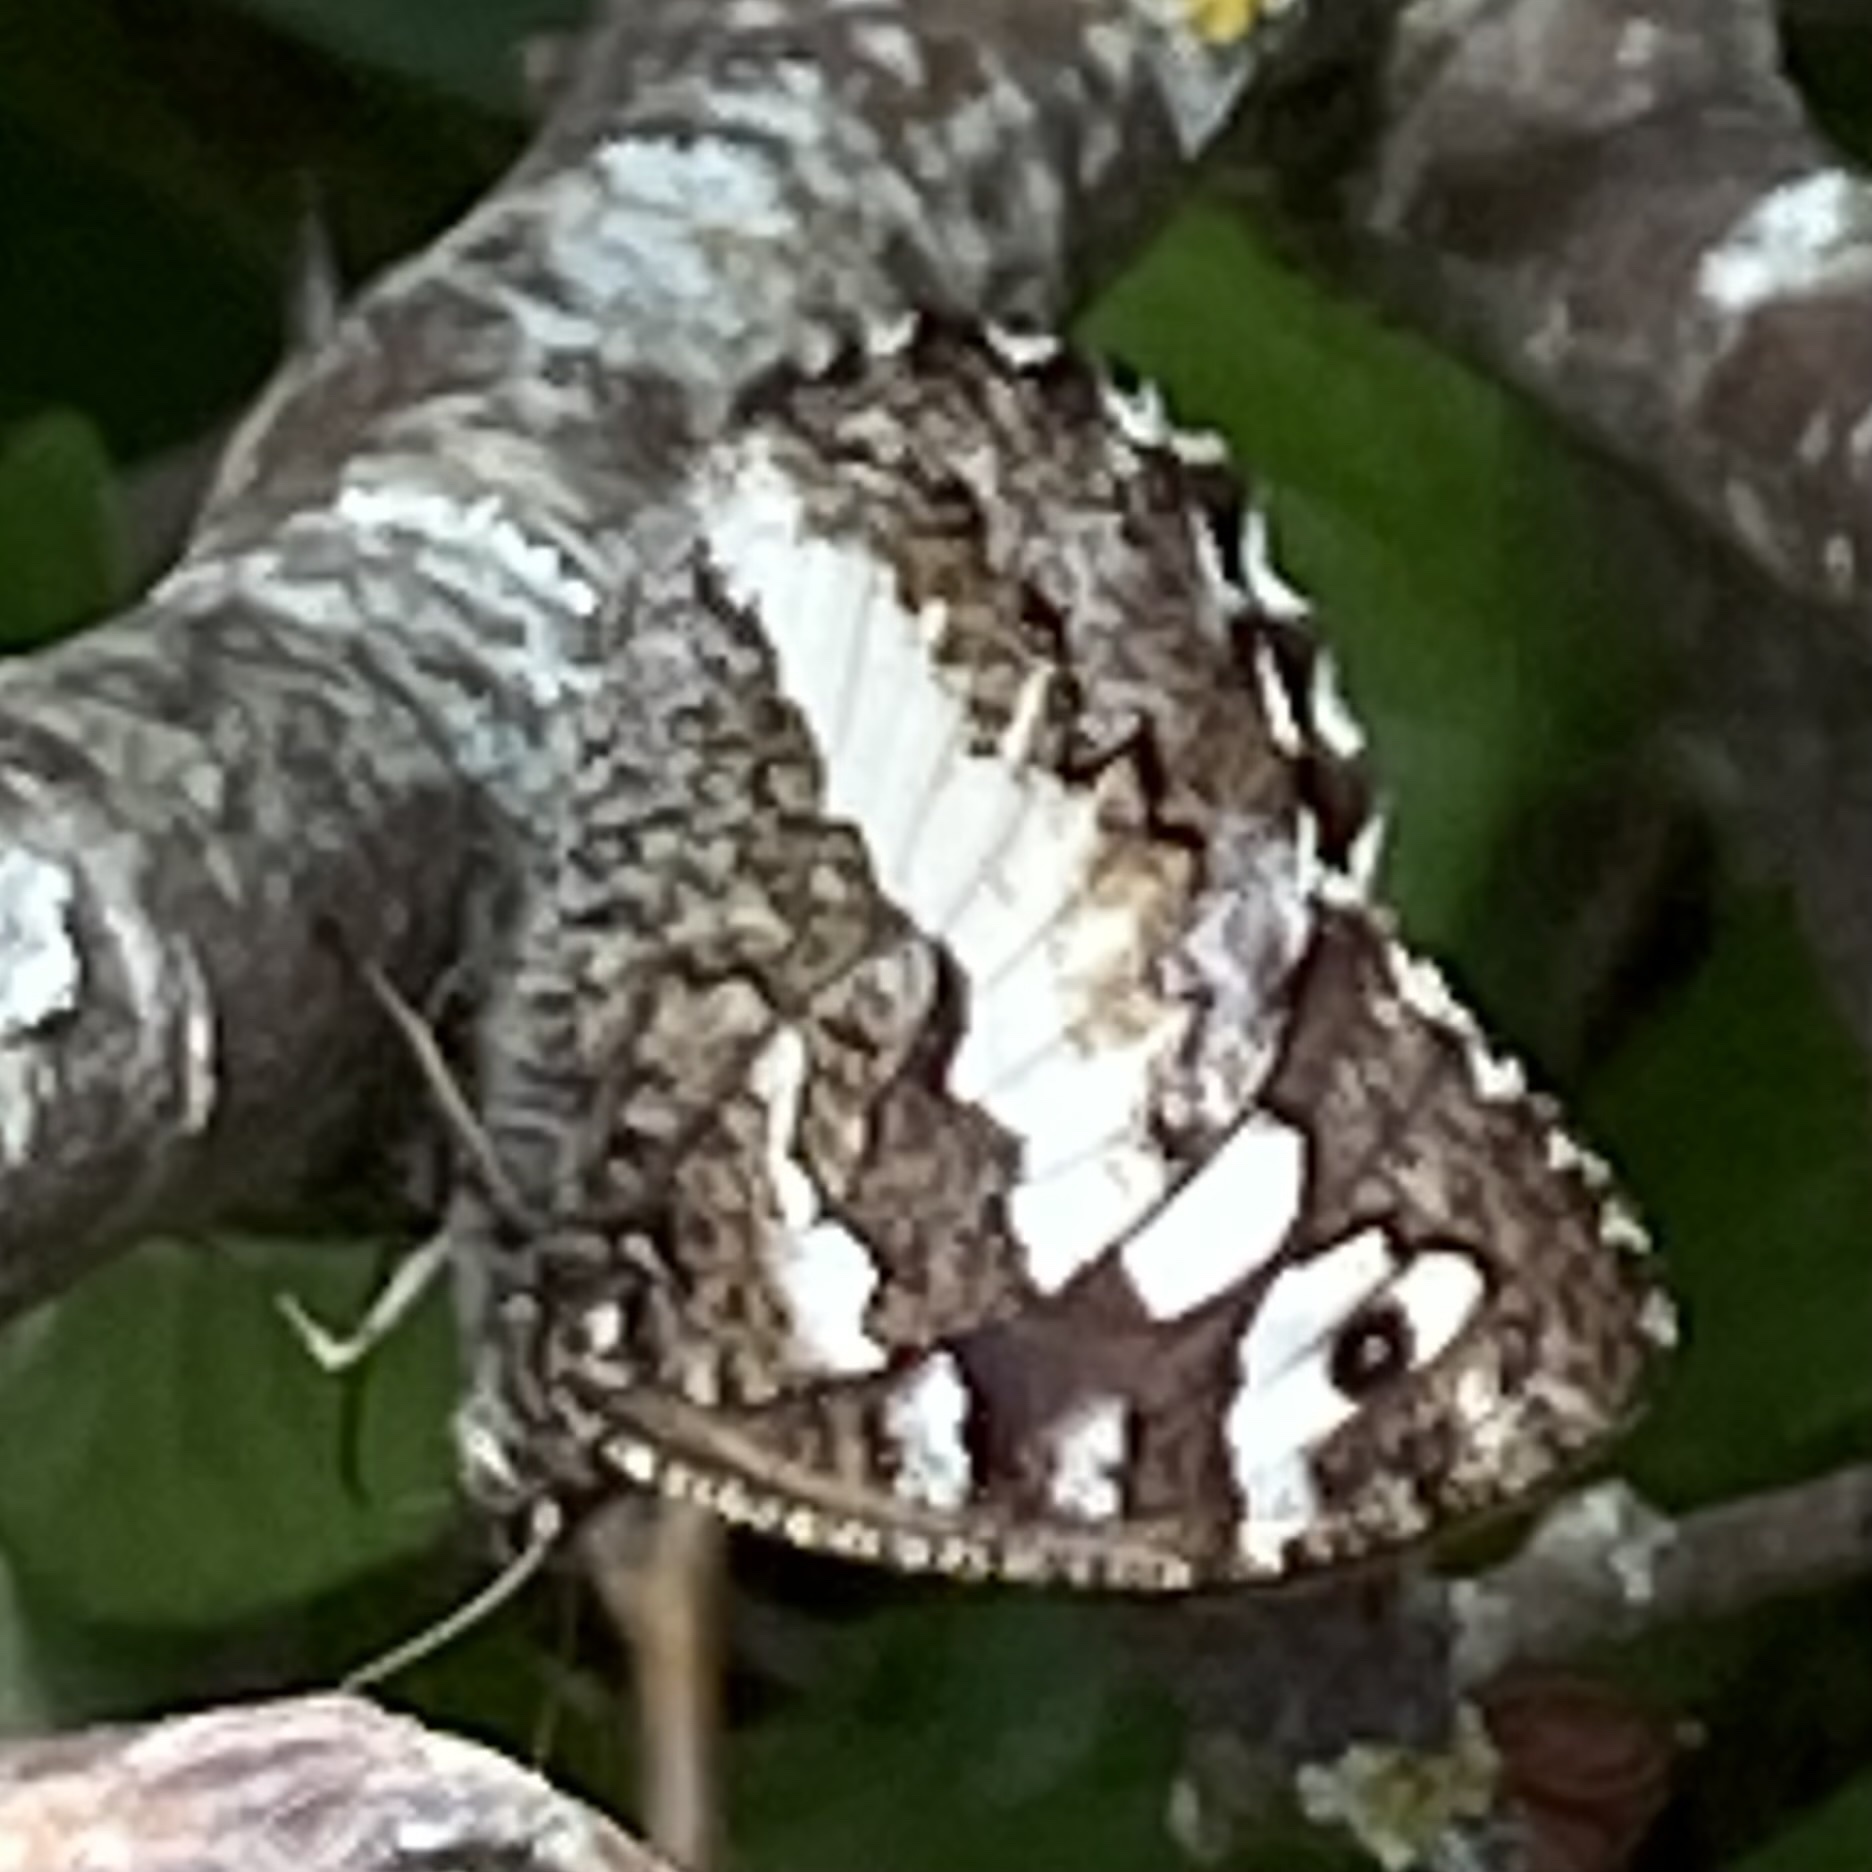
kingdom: Animalia
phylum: Arthropoda
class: Insecta
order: Lepidoptera
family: Lycaenidae
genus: Loweia
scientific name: Loweia tityrus
